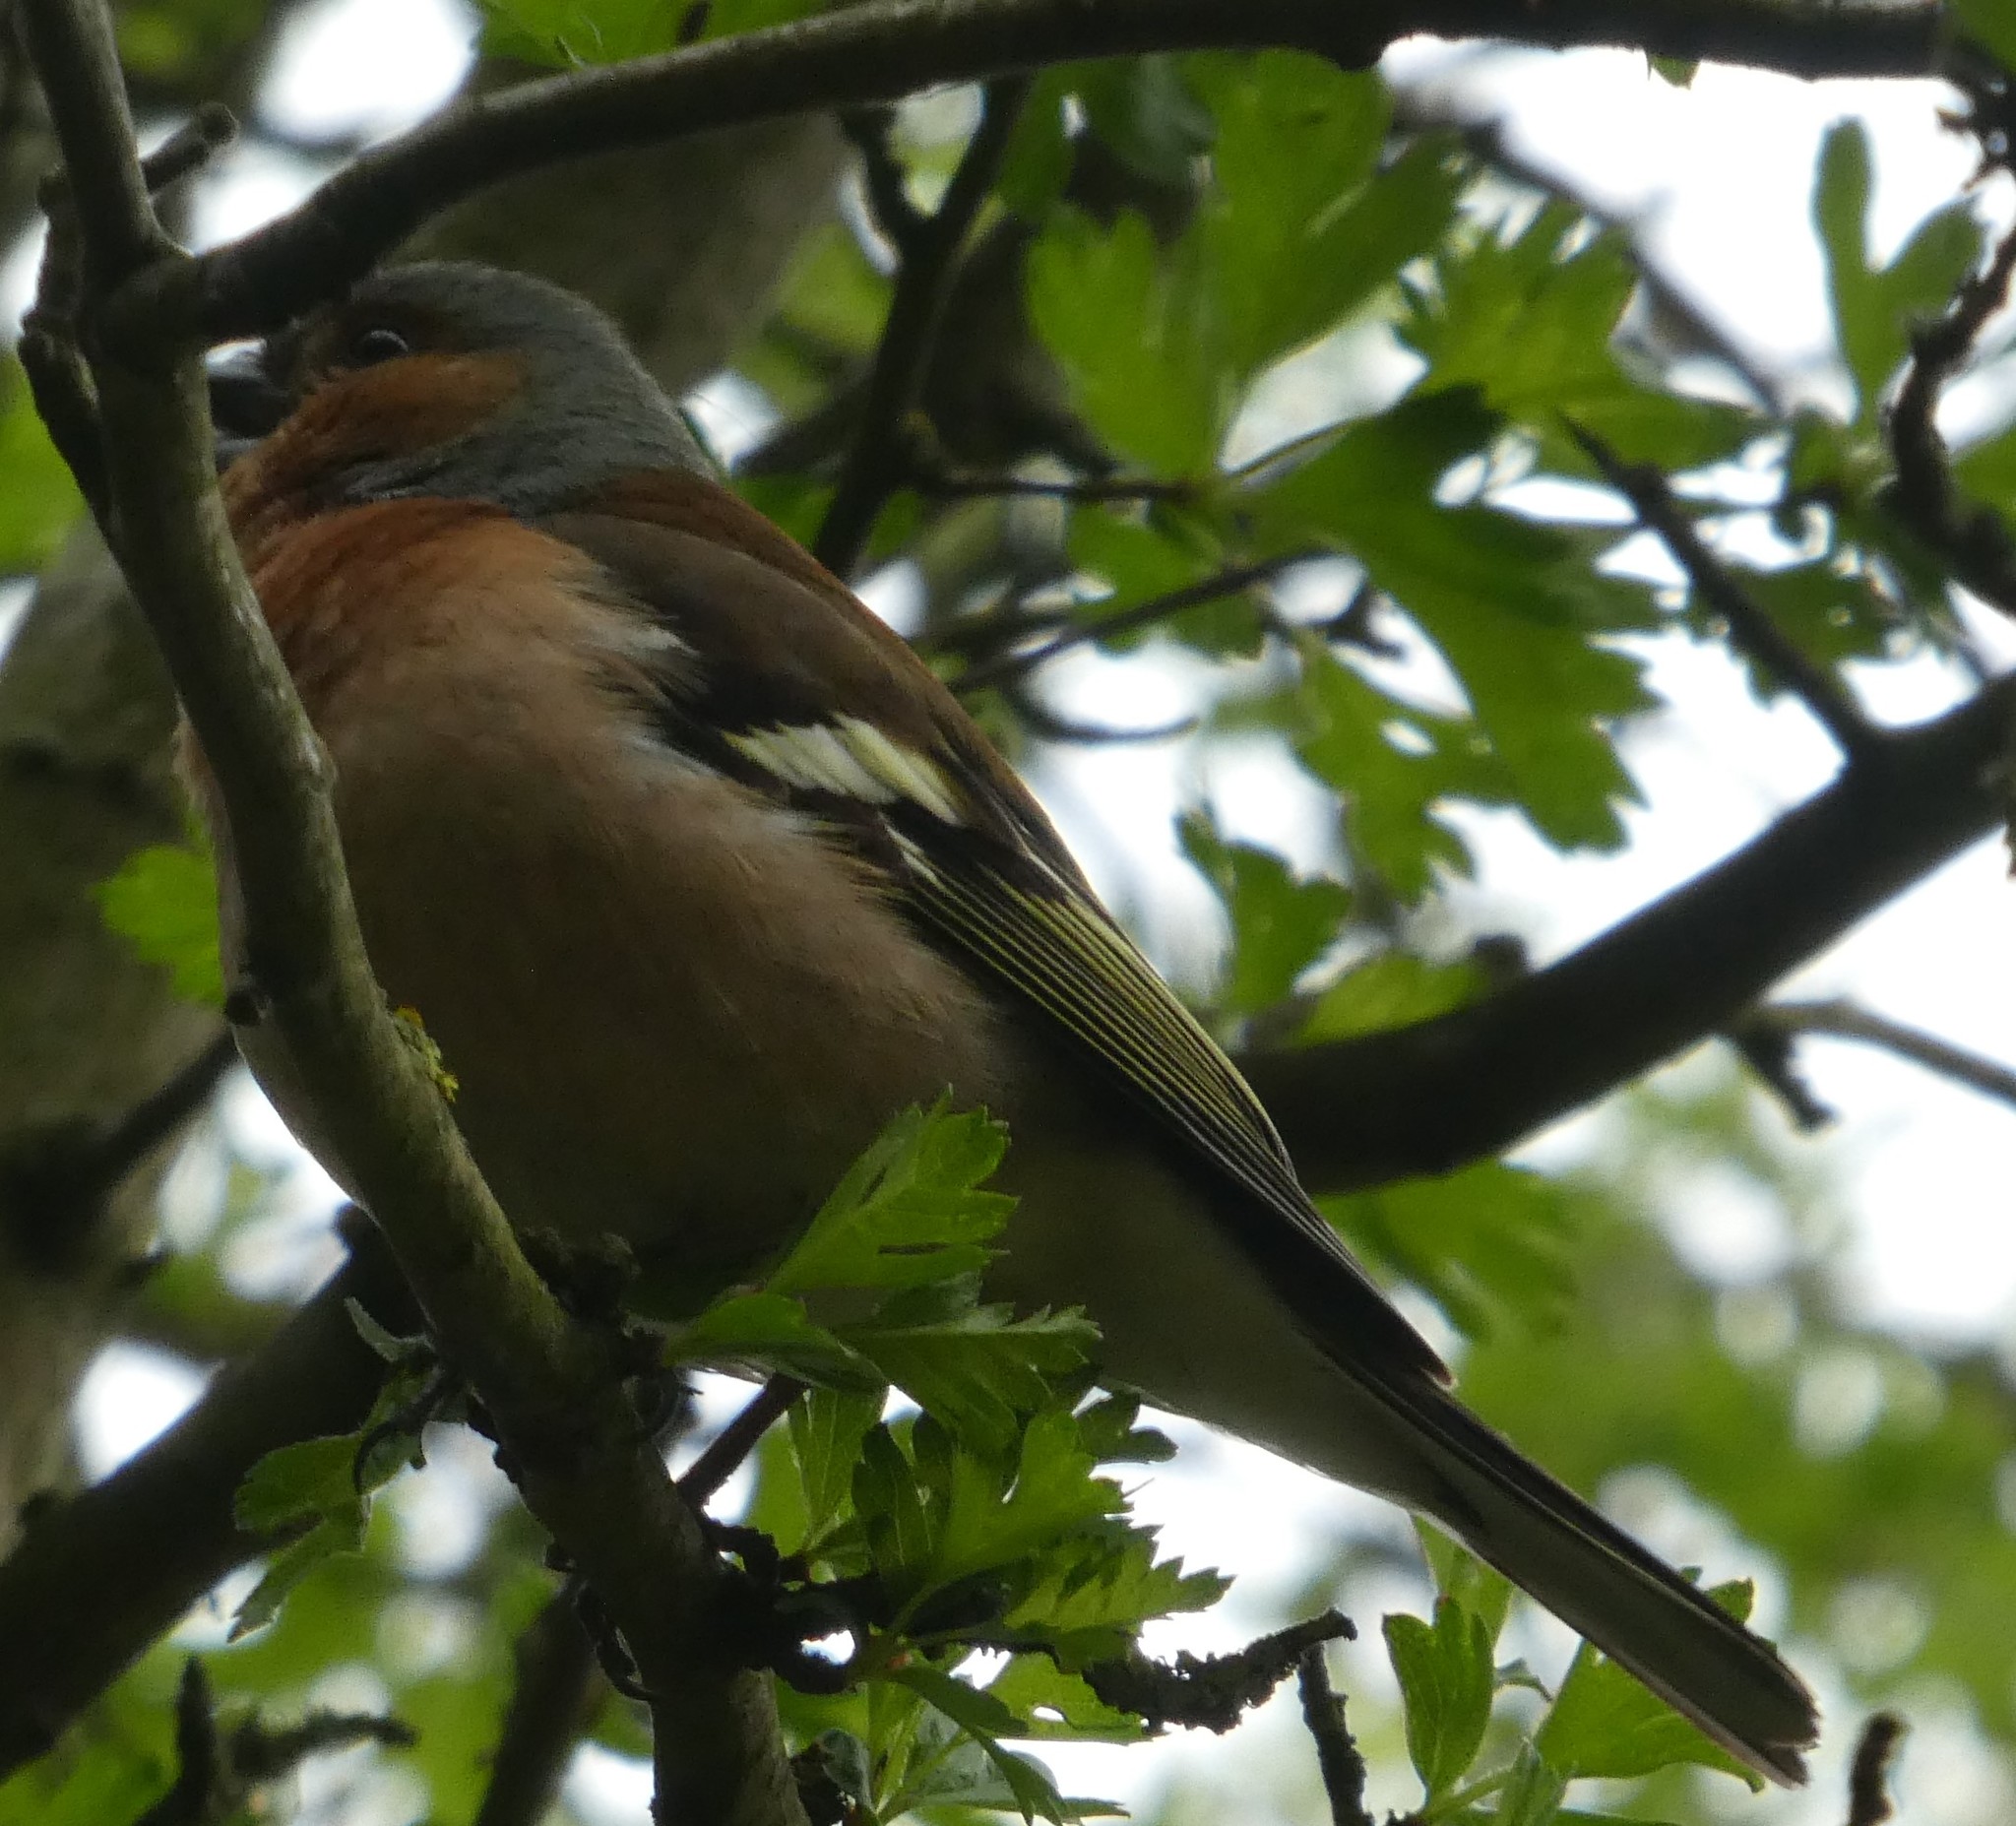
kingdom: Animalia
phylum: Chordata
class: Aves
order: Passeriformes
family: Fringillidae
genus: Fringilla
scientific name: Fringilla coelebs
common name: Common chaffinch
